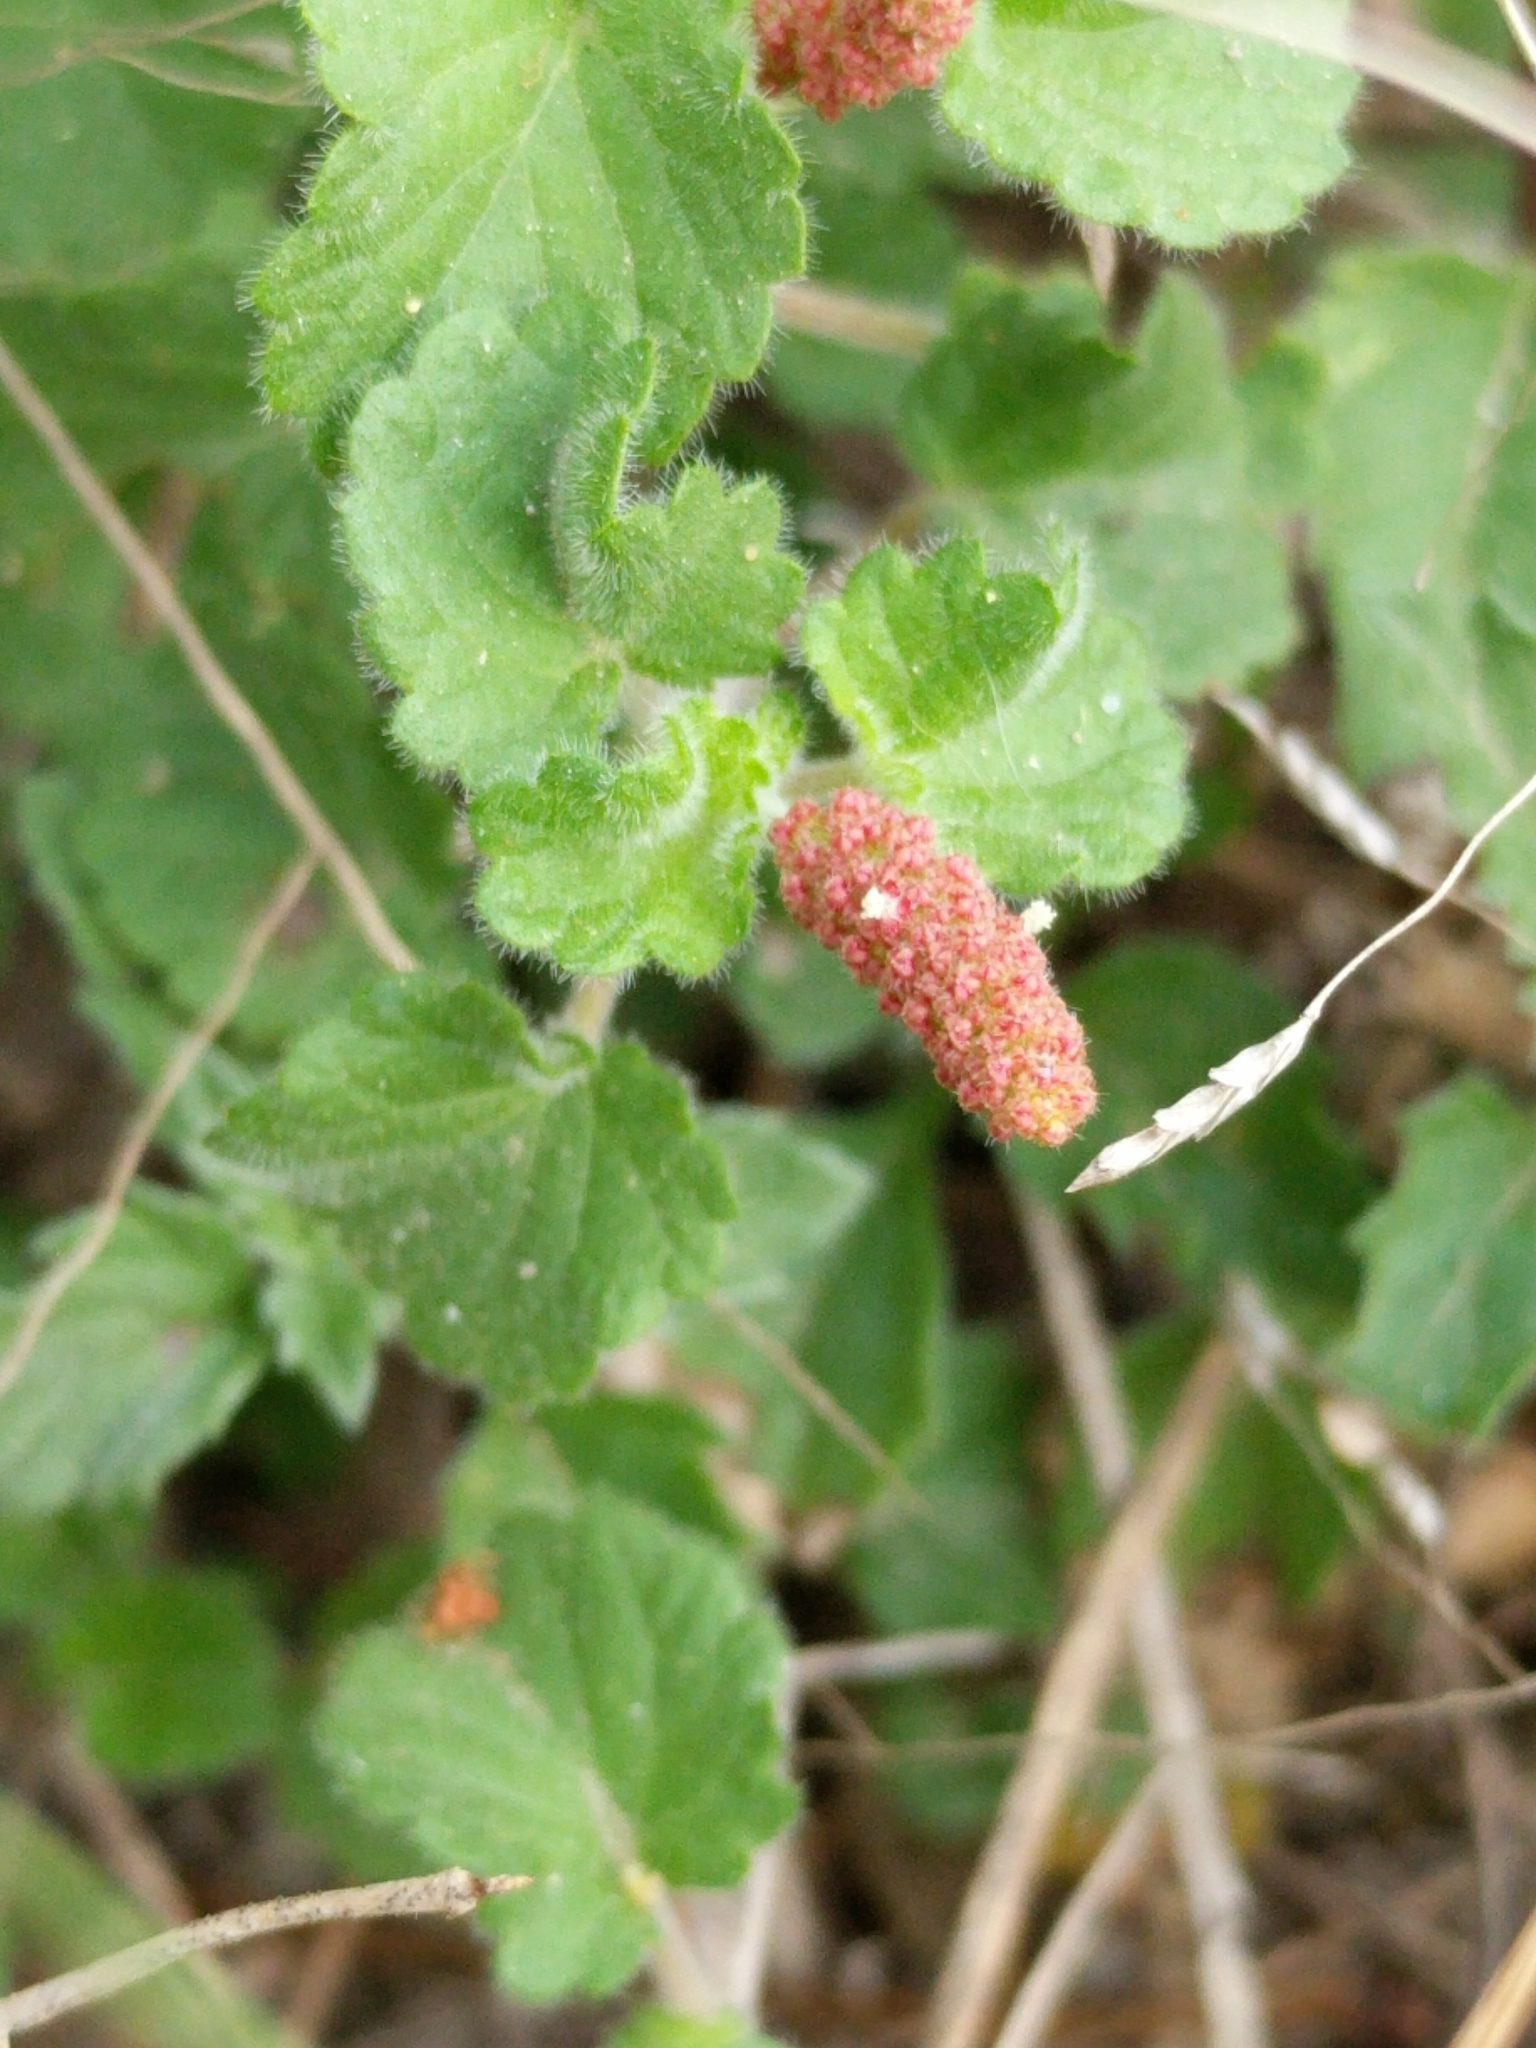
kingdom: Plantae
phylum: Tracheophyta
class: Magnoliopsida
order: Malpighiales
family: Euphorbiaceae
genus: Acalypha
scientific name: Acalypha monostachya
